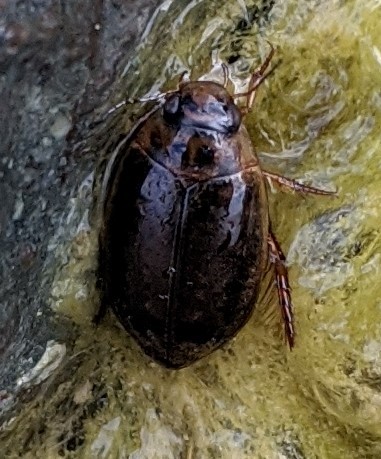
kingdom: Animalia
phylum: Arthropoda
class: Insecta
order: Coleoptera
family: Dytiscidae
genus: Rhantus
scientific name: Rhantus binotatus
